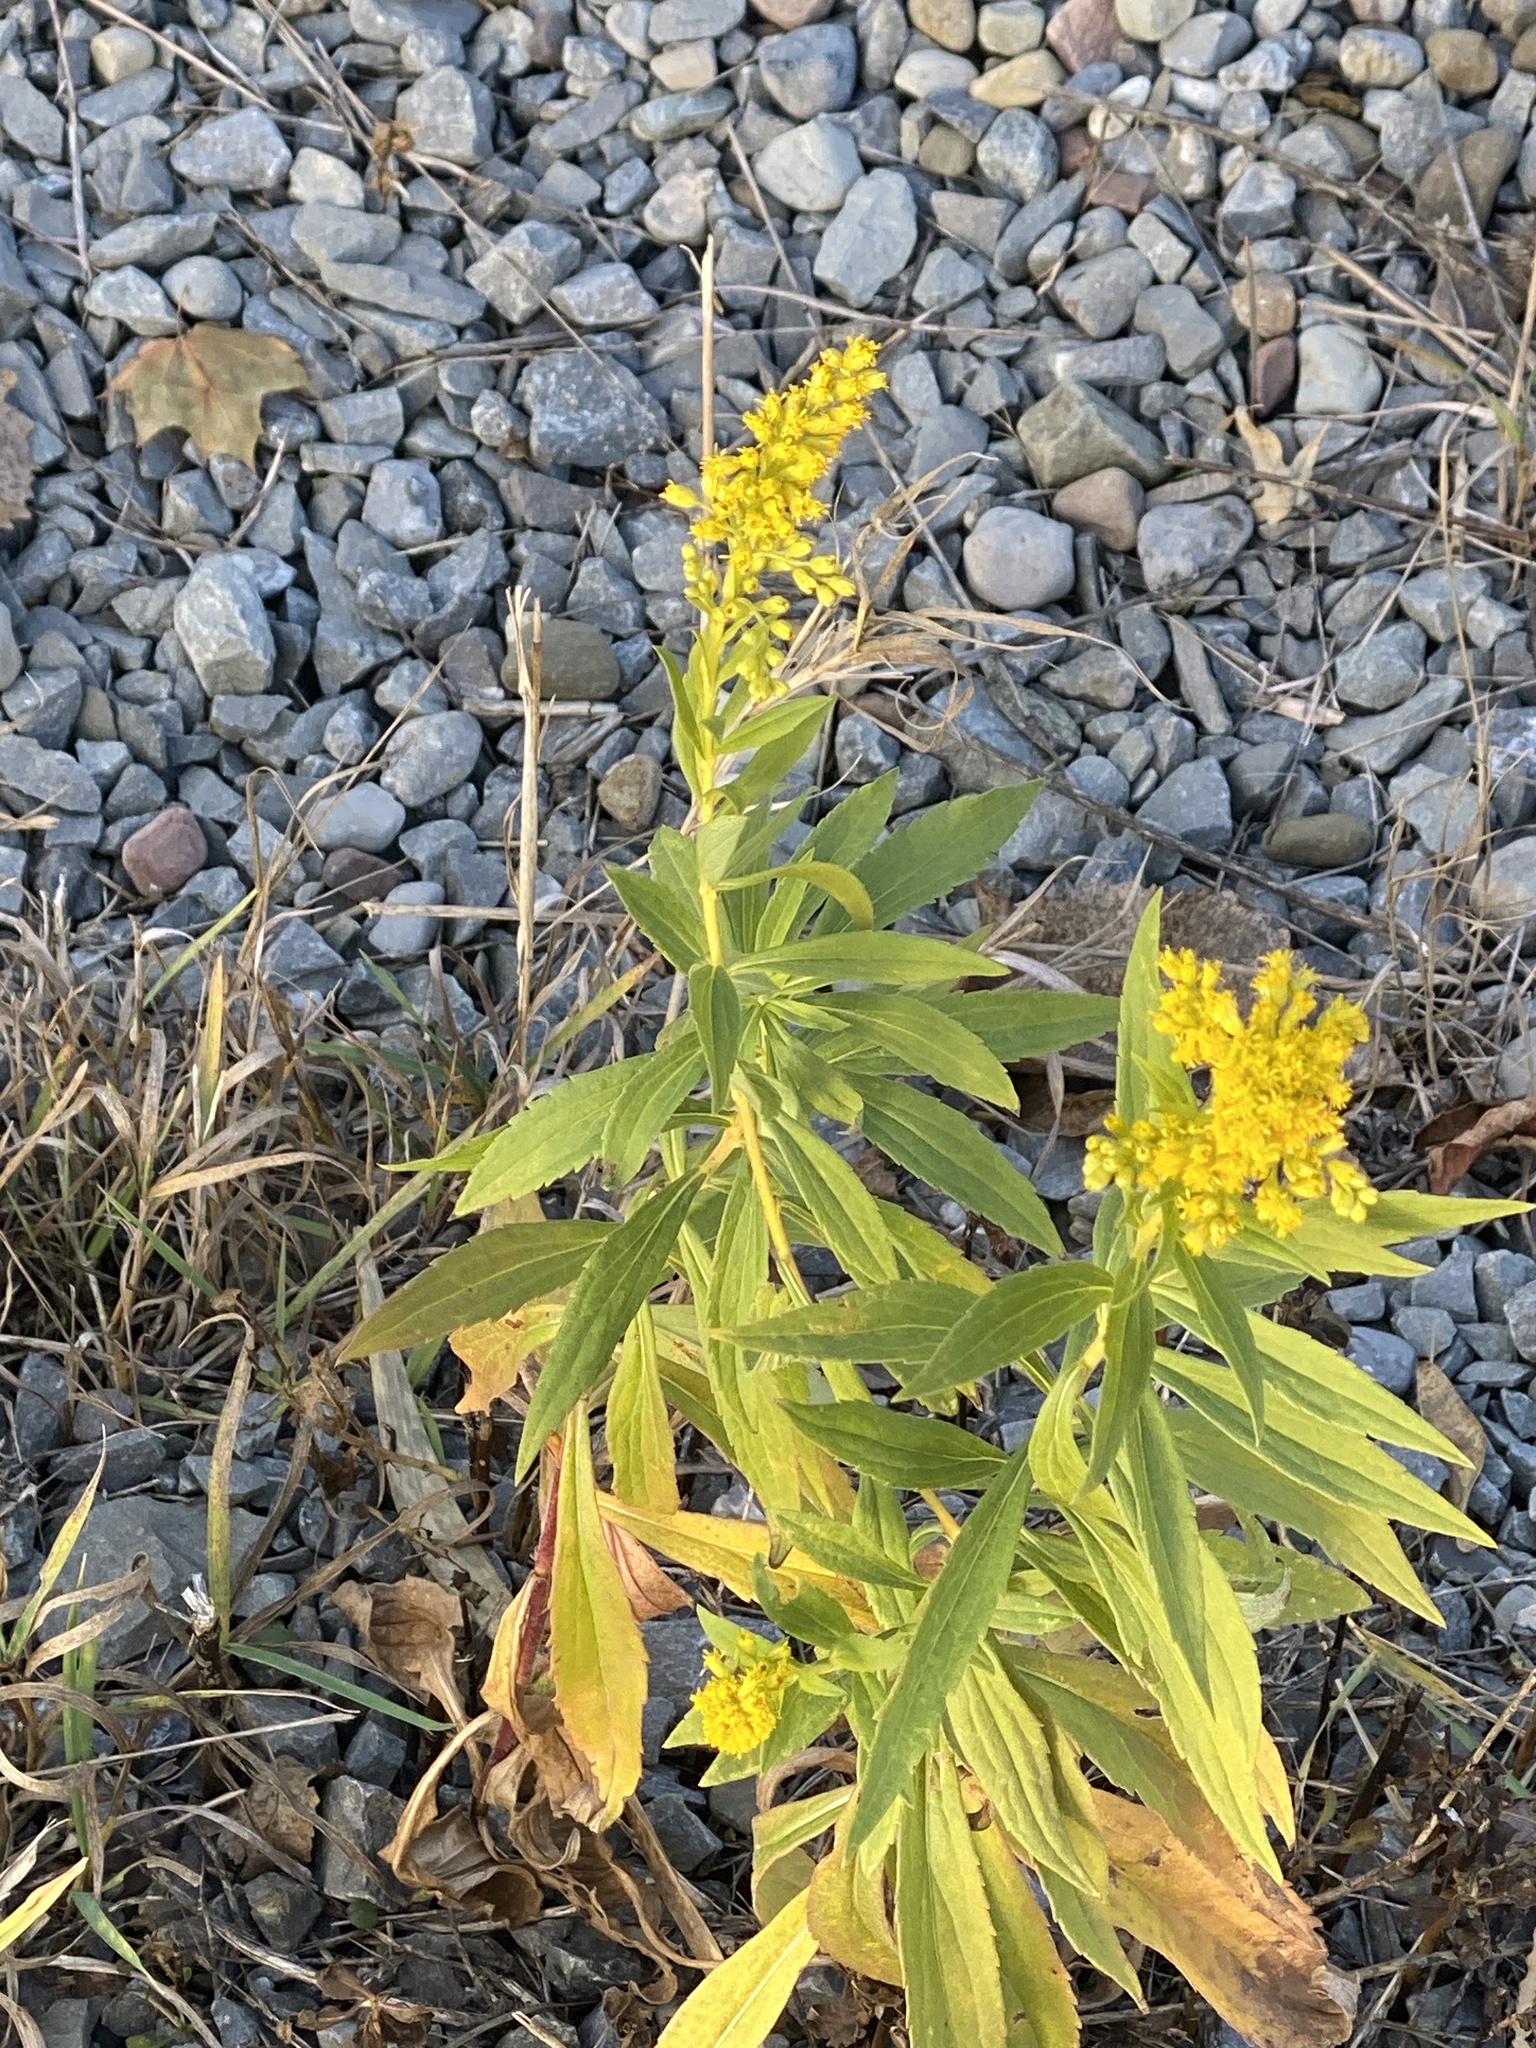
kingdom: Plantae
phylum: Tracheophyta
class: Magnoliopsida
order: Asterales
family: Asteraceae
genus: Solidago
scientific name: Solidago canadensis
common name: Canada goldenrod
